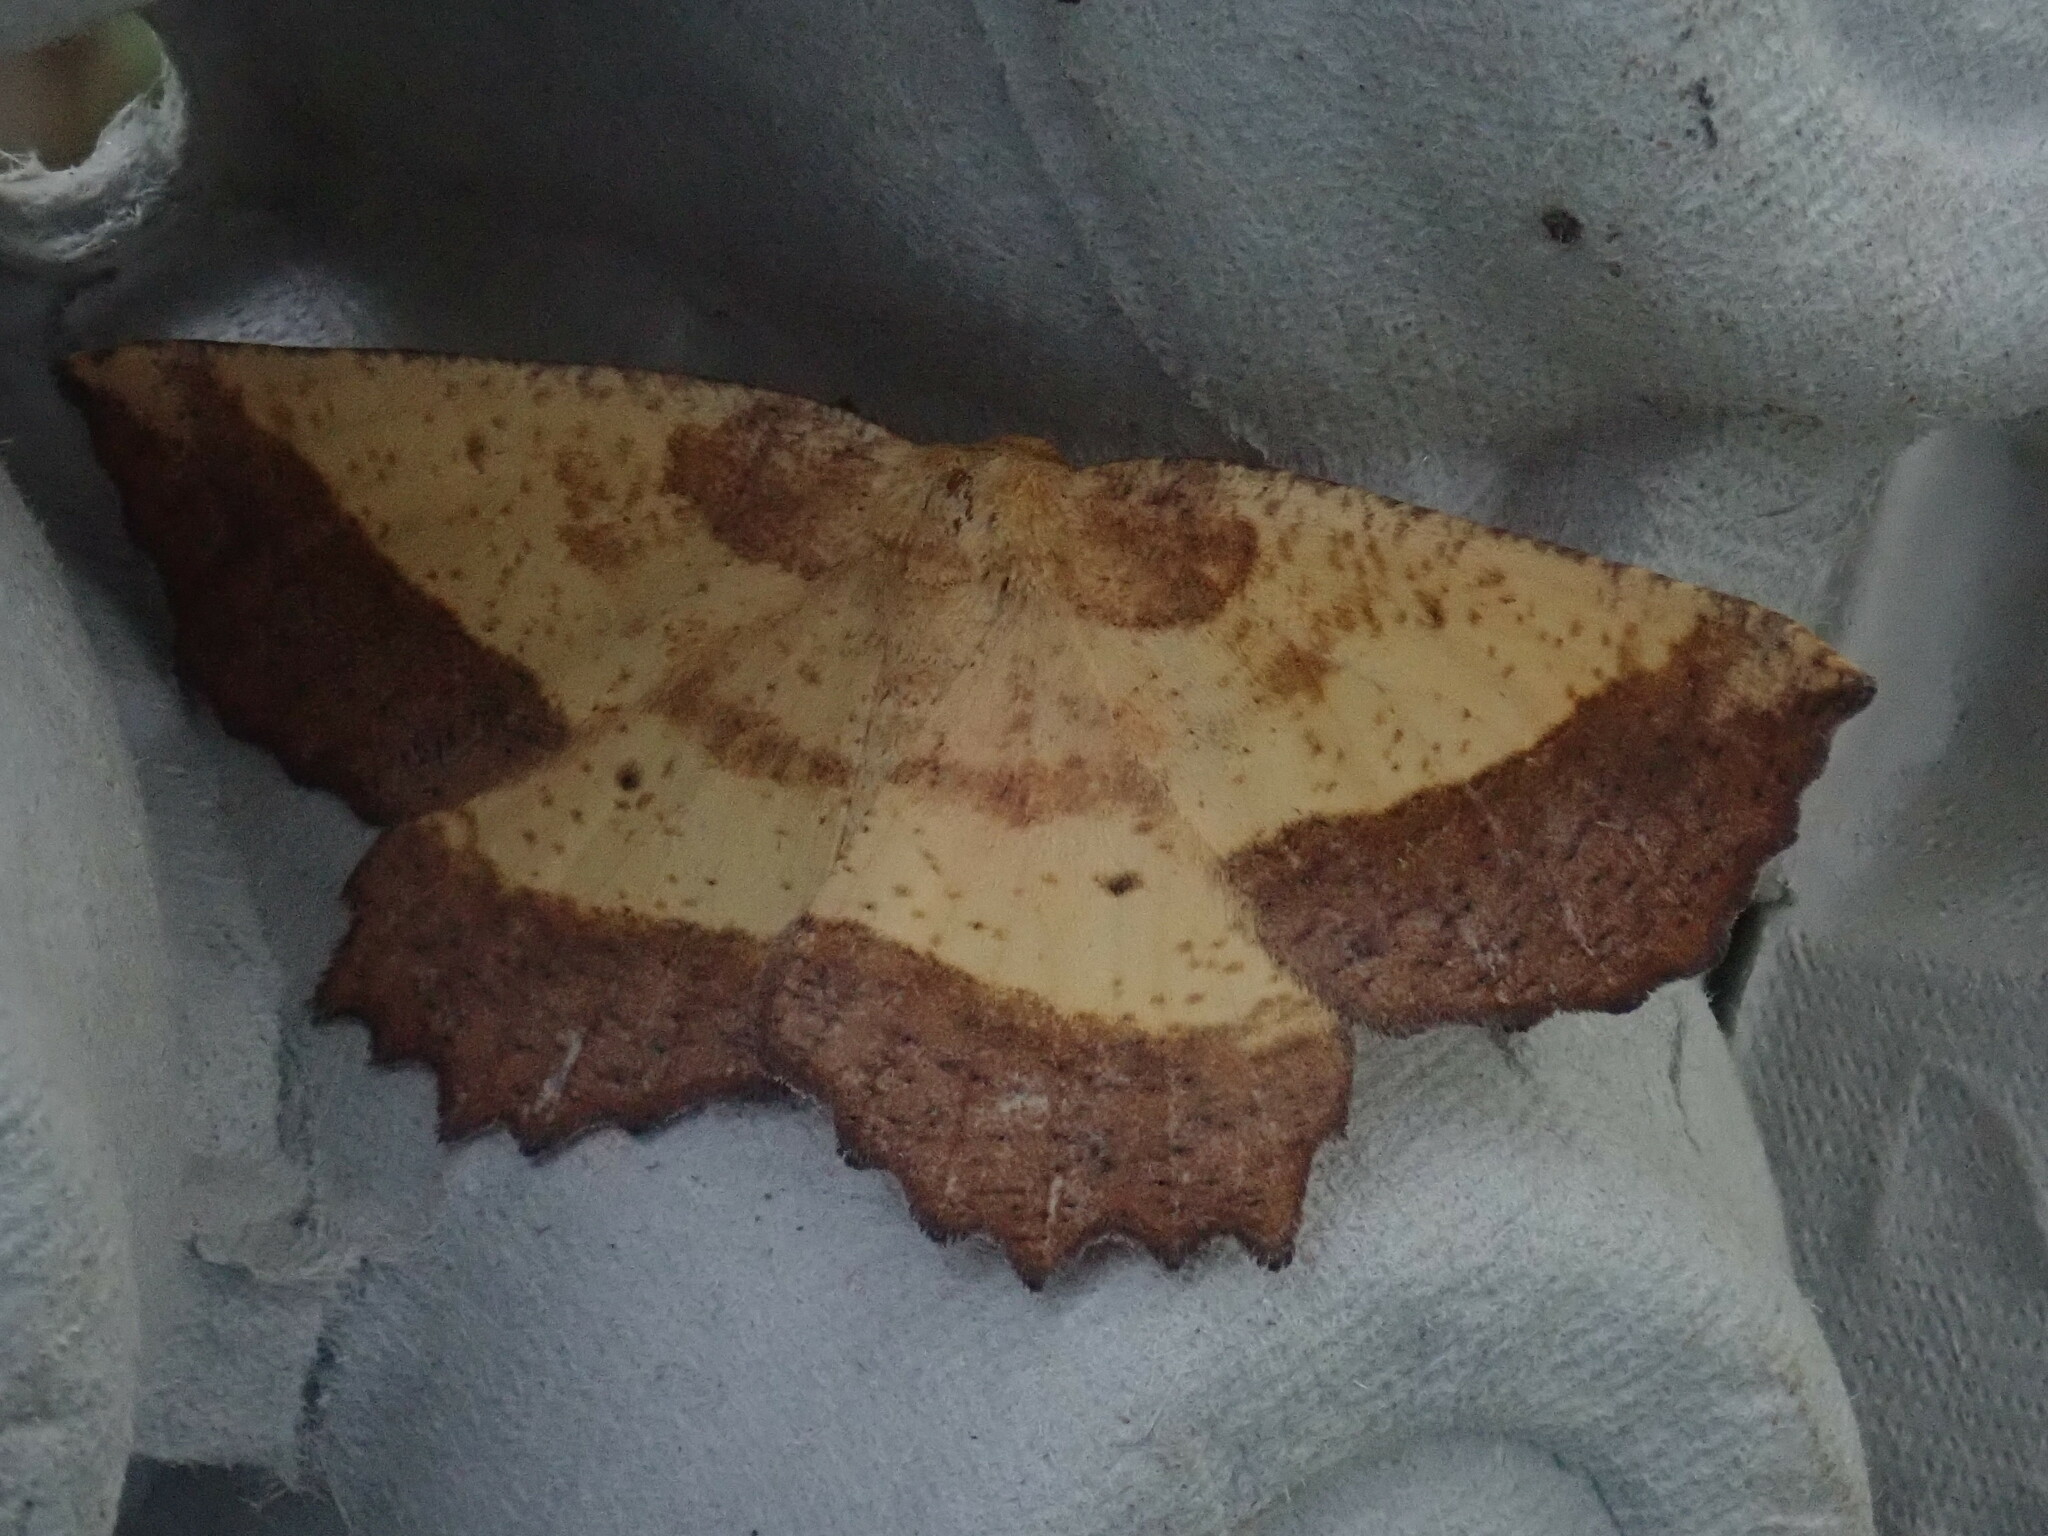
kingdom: Animalia
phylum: Arthropoda
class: Insecta
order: Lepidoptera
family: Geometridae
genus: Euchlaena
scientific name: Euchlaena serrata
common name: Saw wing
